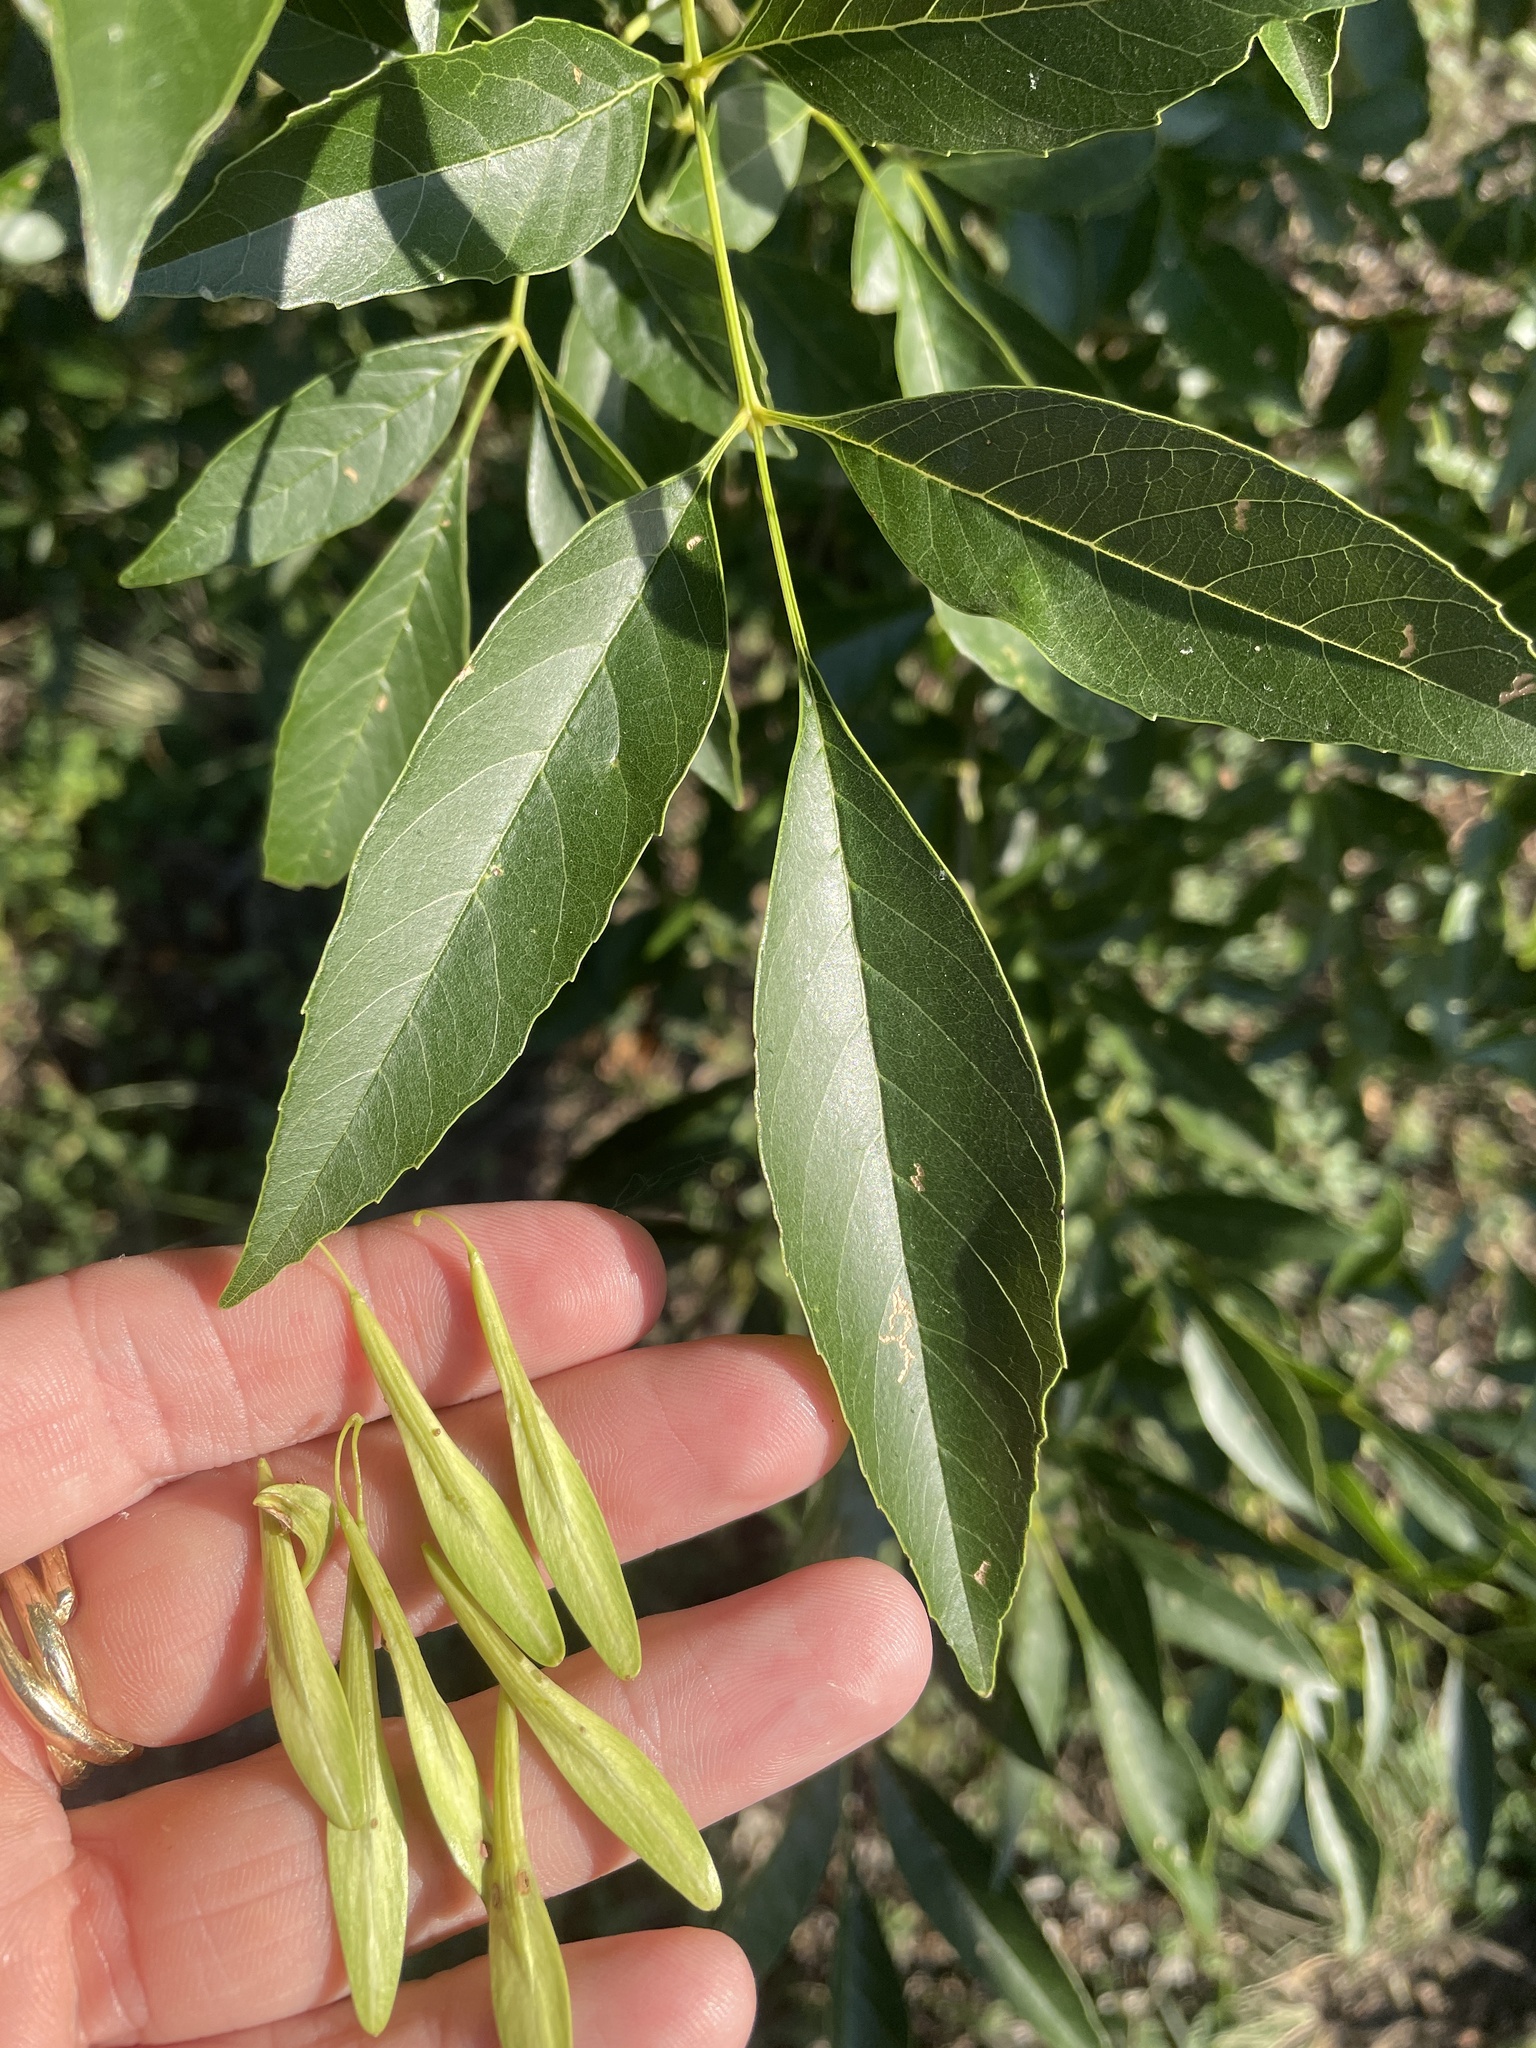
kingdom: Plantae
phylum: Tracheophyta
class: Magnoliopsida
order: Lamiales
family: Oleaceae
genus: Fraxinus
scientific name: Fraxinus berlandieriana
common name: Berlandier ash
